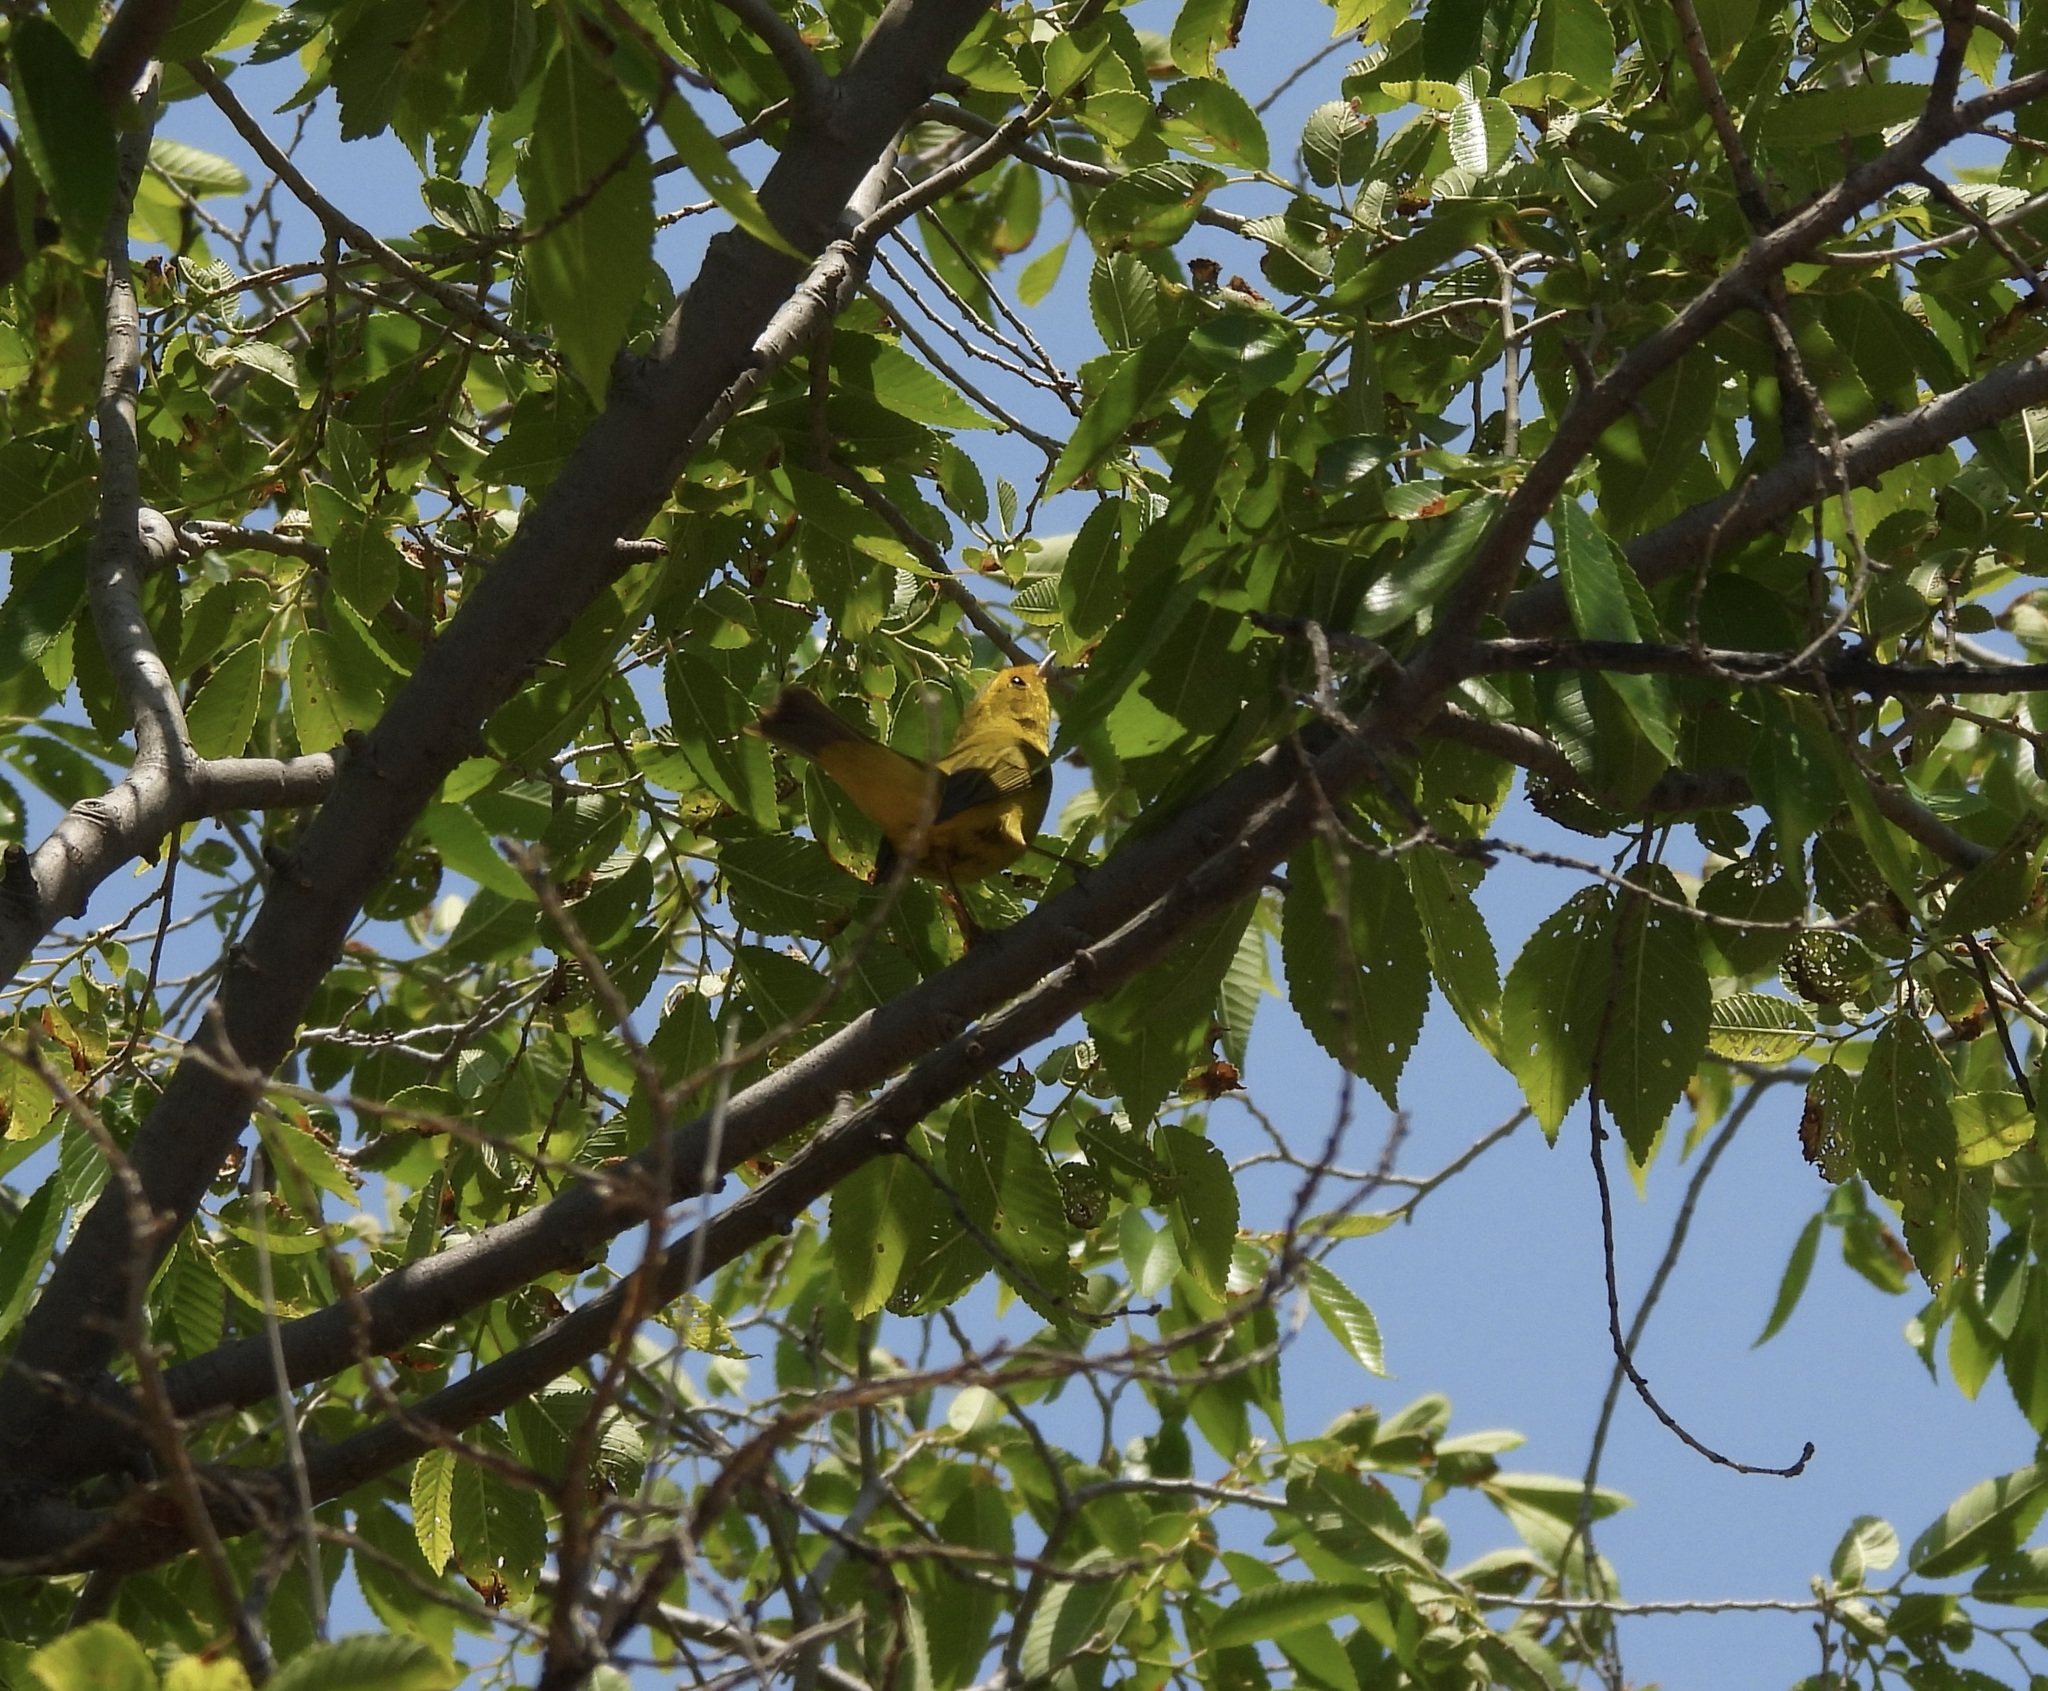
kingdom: Animalia
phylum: Chordata
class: Aves
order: Passeriformes
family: Parulidae
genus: Cardellina
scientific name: Cardellina pusilla
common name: Wilson's warbler
